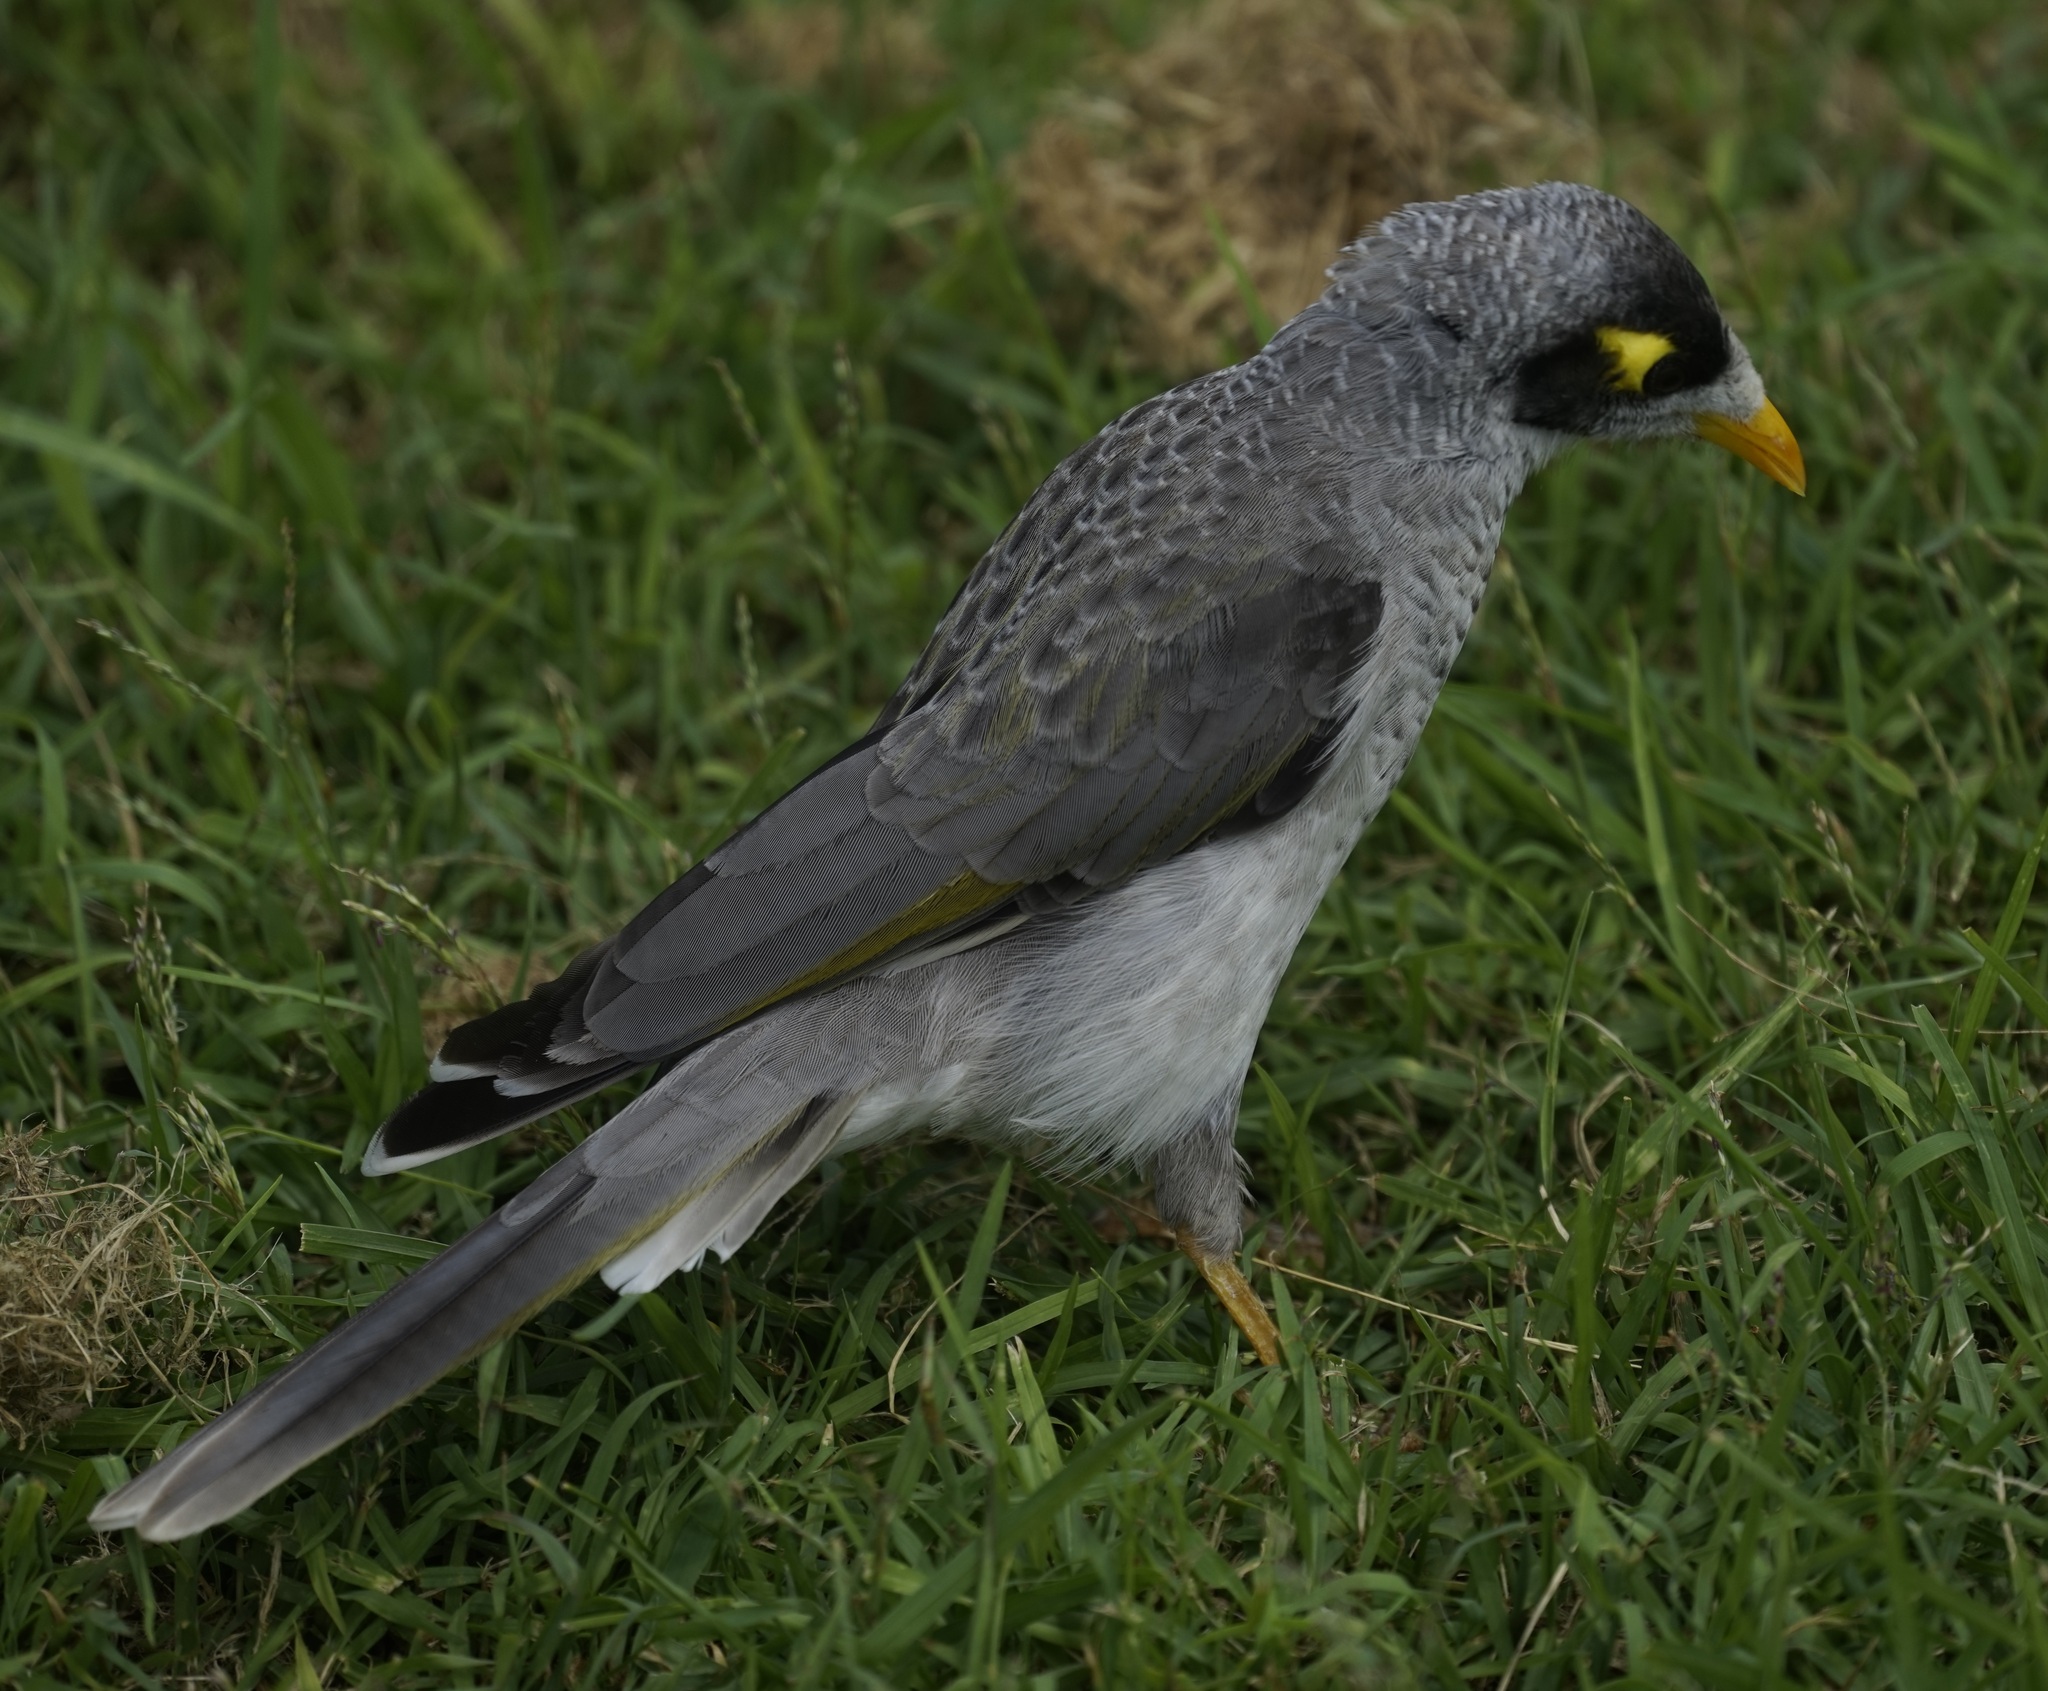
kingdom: Animalia
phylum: Chordata
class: Aves
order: Passeriformes
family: Meliphagidae
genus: Manorina
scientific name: Manorina melanocephala
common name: Noisy miner
